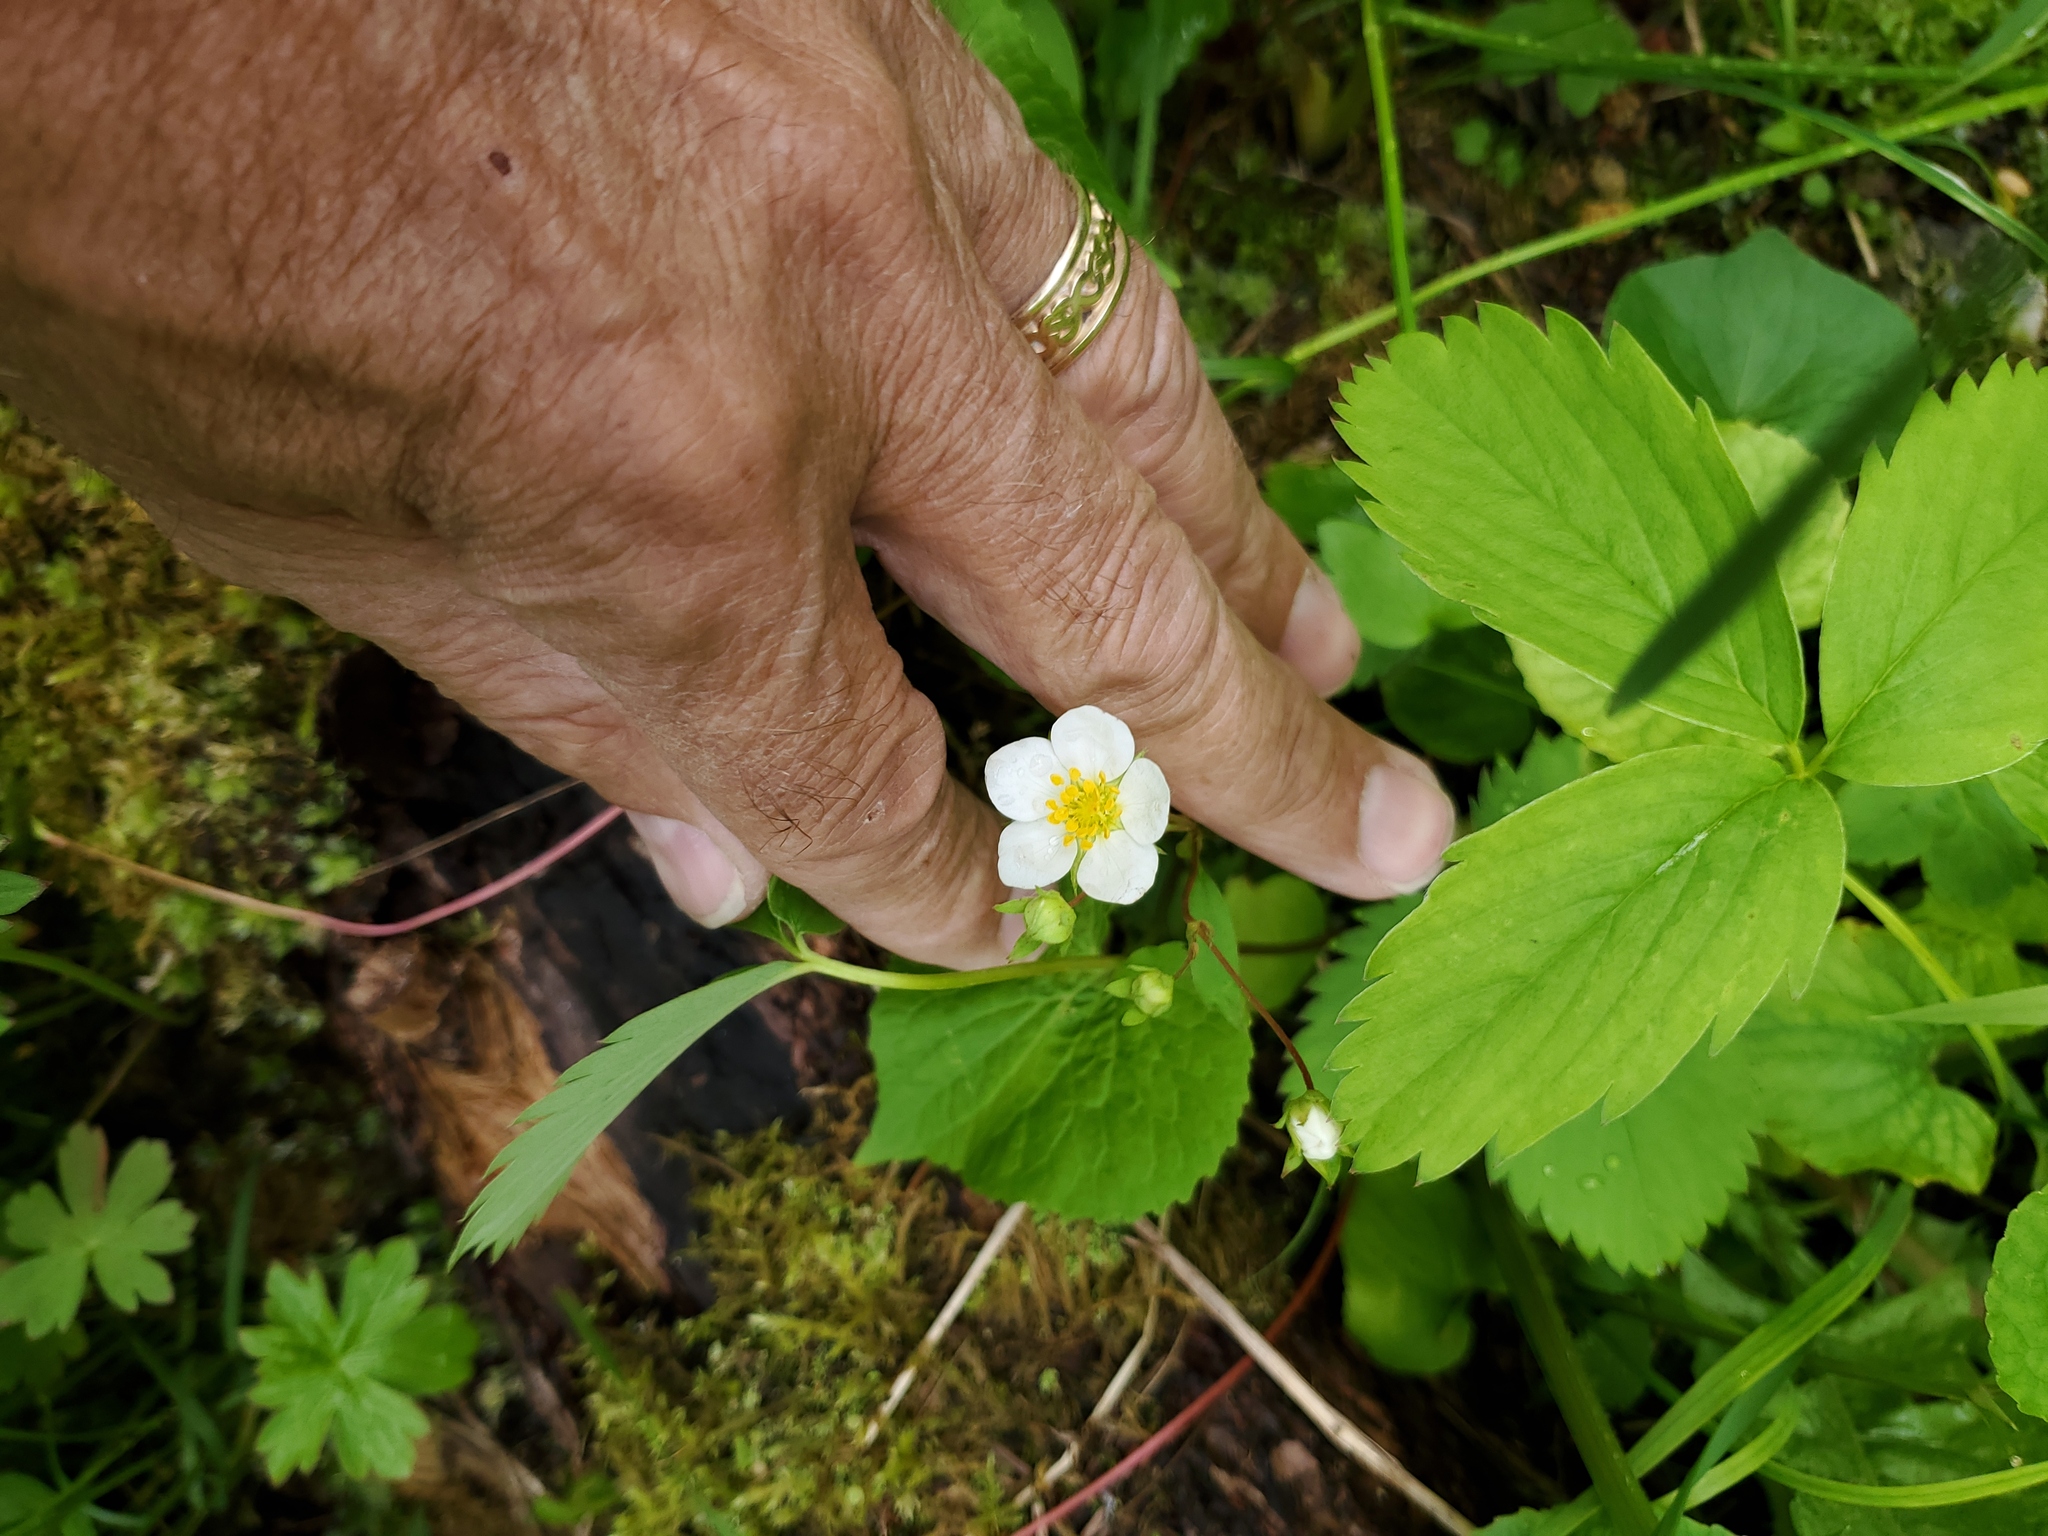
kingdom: Plantae
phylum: Tracheophyta
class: Magnoliopsida
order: Rosales
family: Rosaceae
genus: Fragaria
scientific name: Fragaria virginiana
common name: Thickleaved wild strawberry
